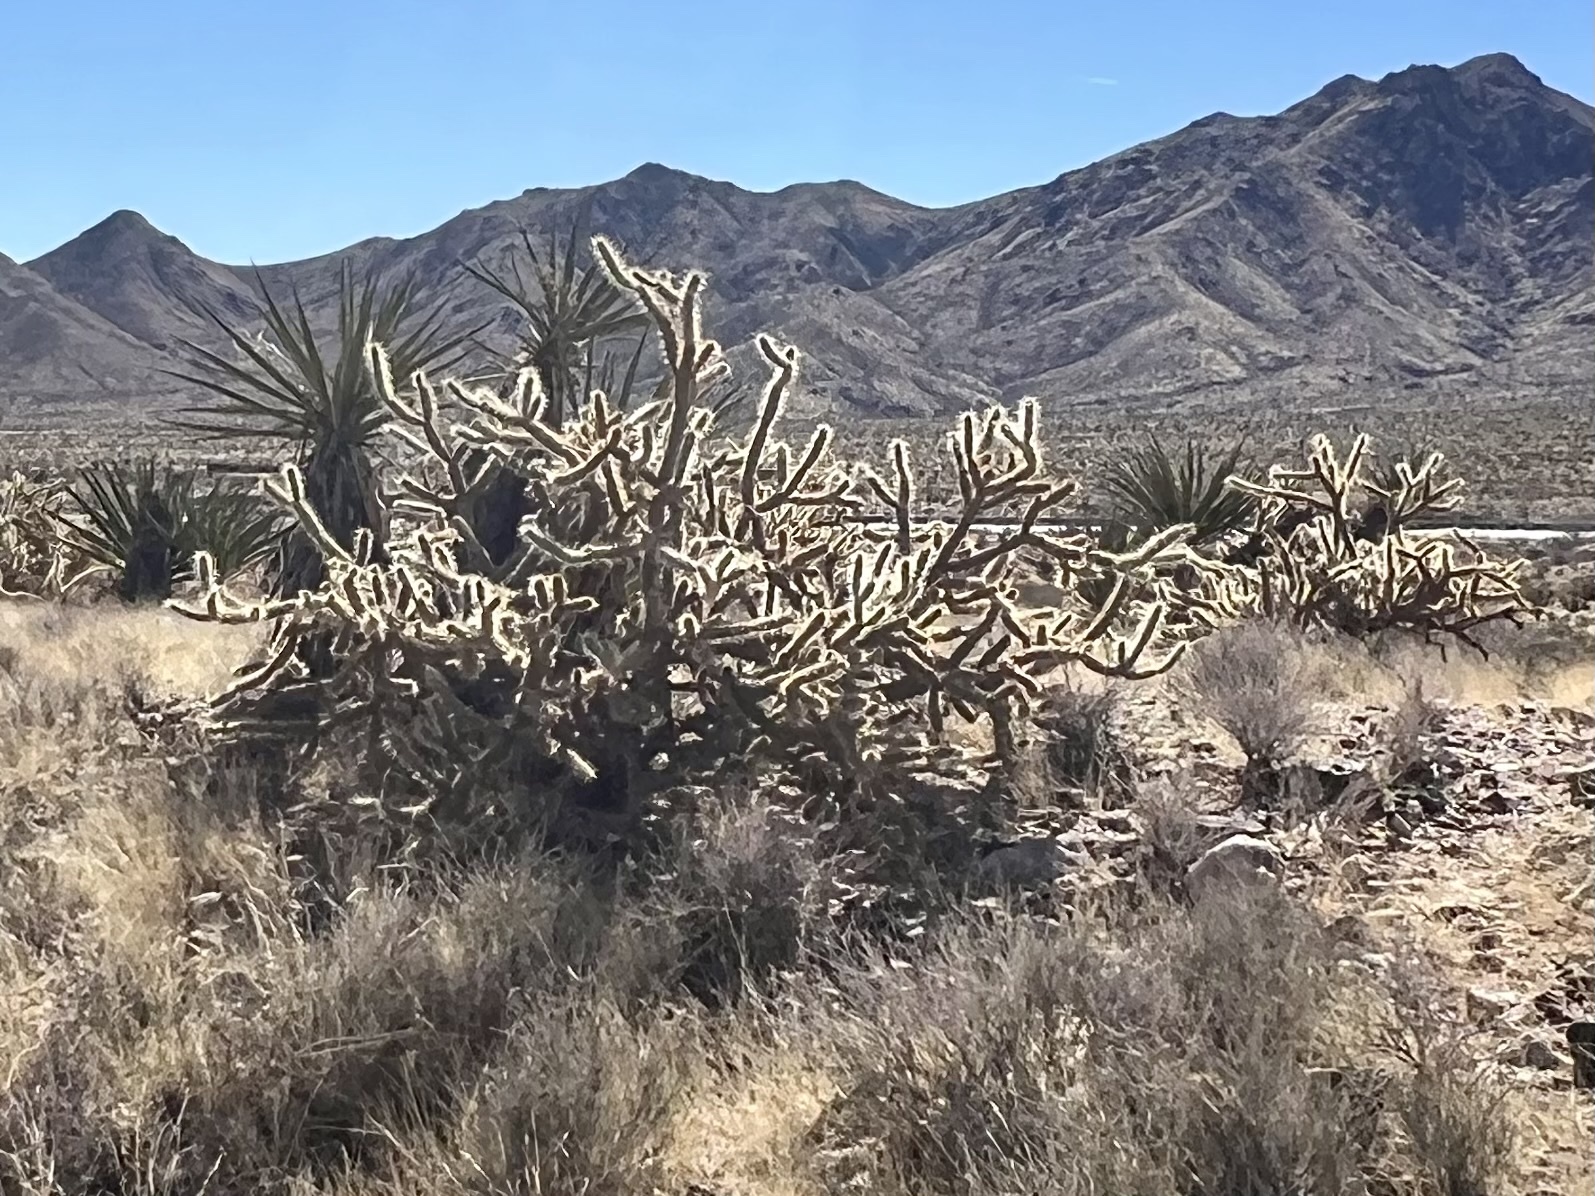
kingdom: Plantae
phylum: Tracheophyta
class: Magnoliopsida
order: Caryophyllales
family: Cactaceae
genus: Cylindropuntia
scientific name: Cylindropuntia acanthocarpa
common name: Buckhorn cholla
